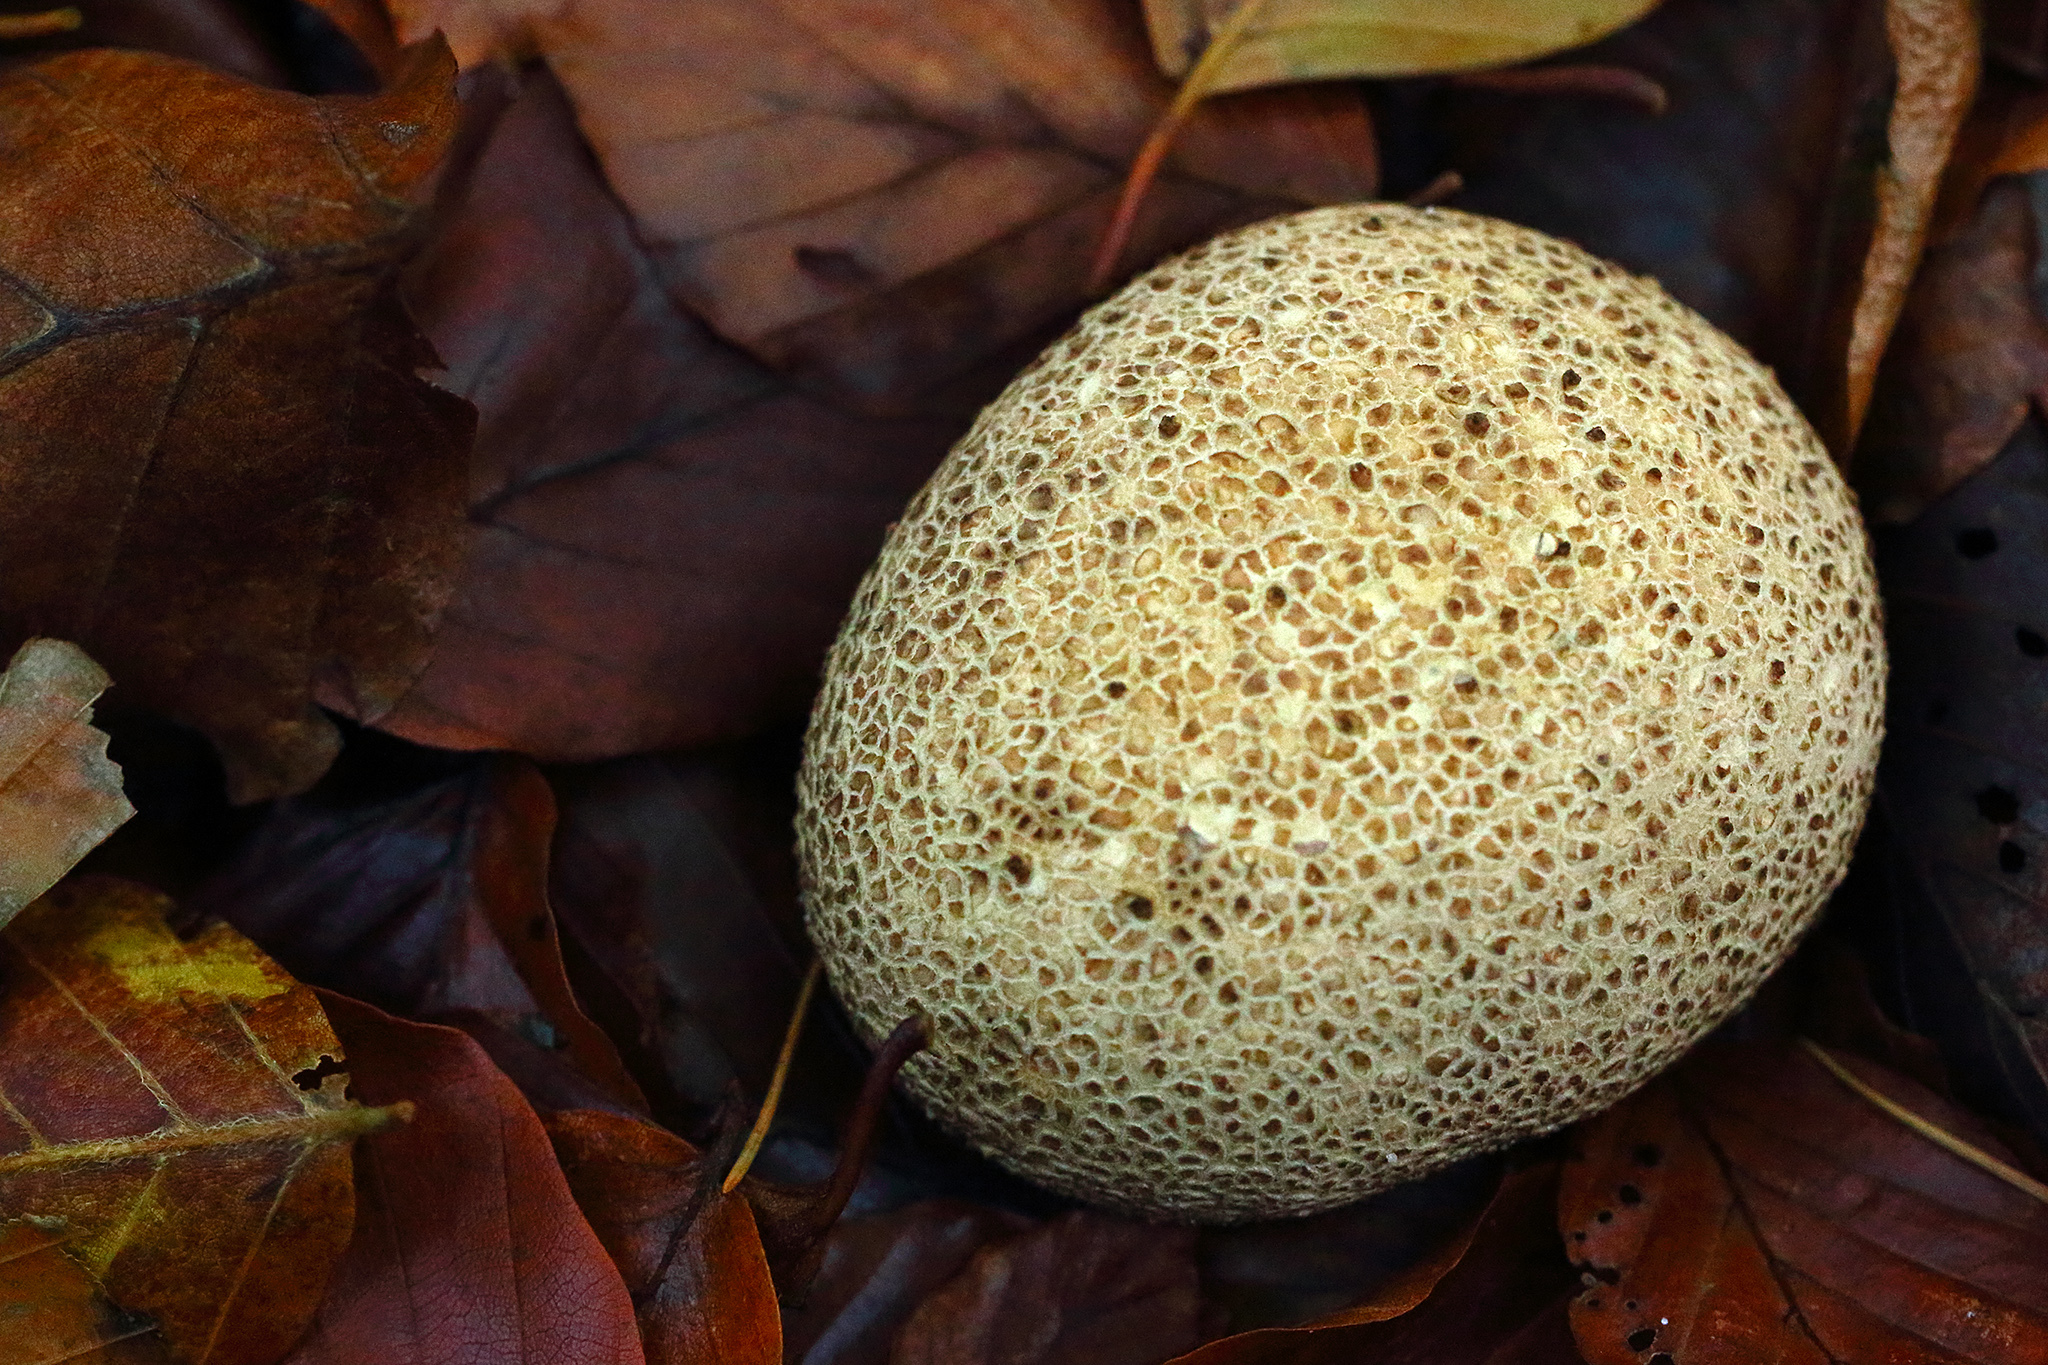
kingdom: Fungi
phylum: Basidiomycota
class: Agaricomycetes
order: Boletales
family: Sclerodermataceae
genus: Scleroderma
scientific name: Scleroderma citrinum
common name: Common earthball
